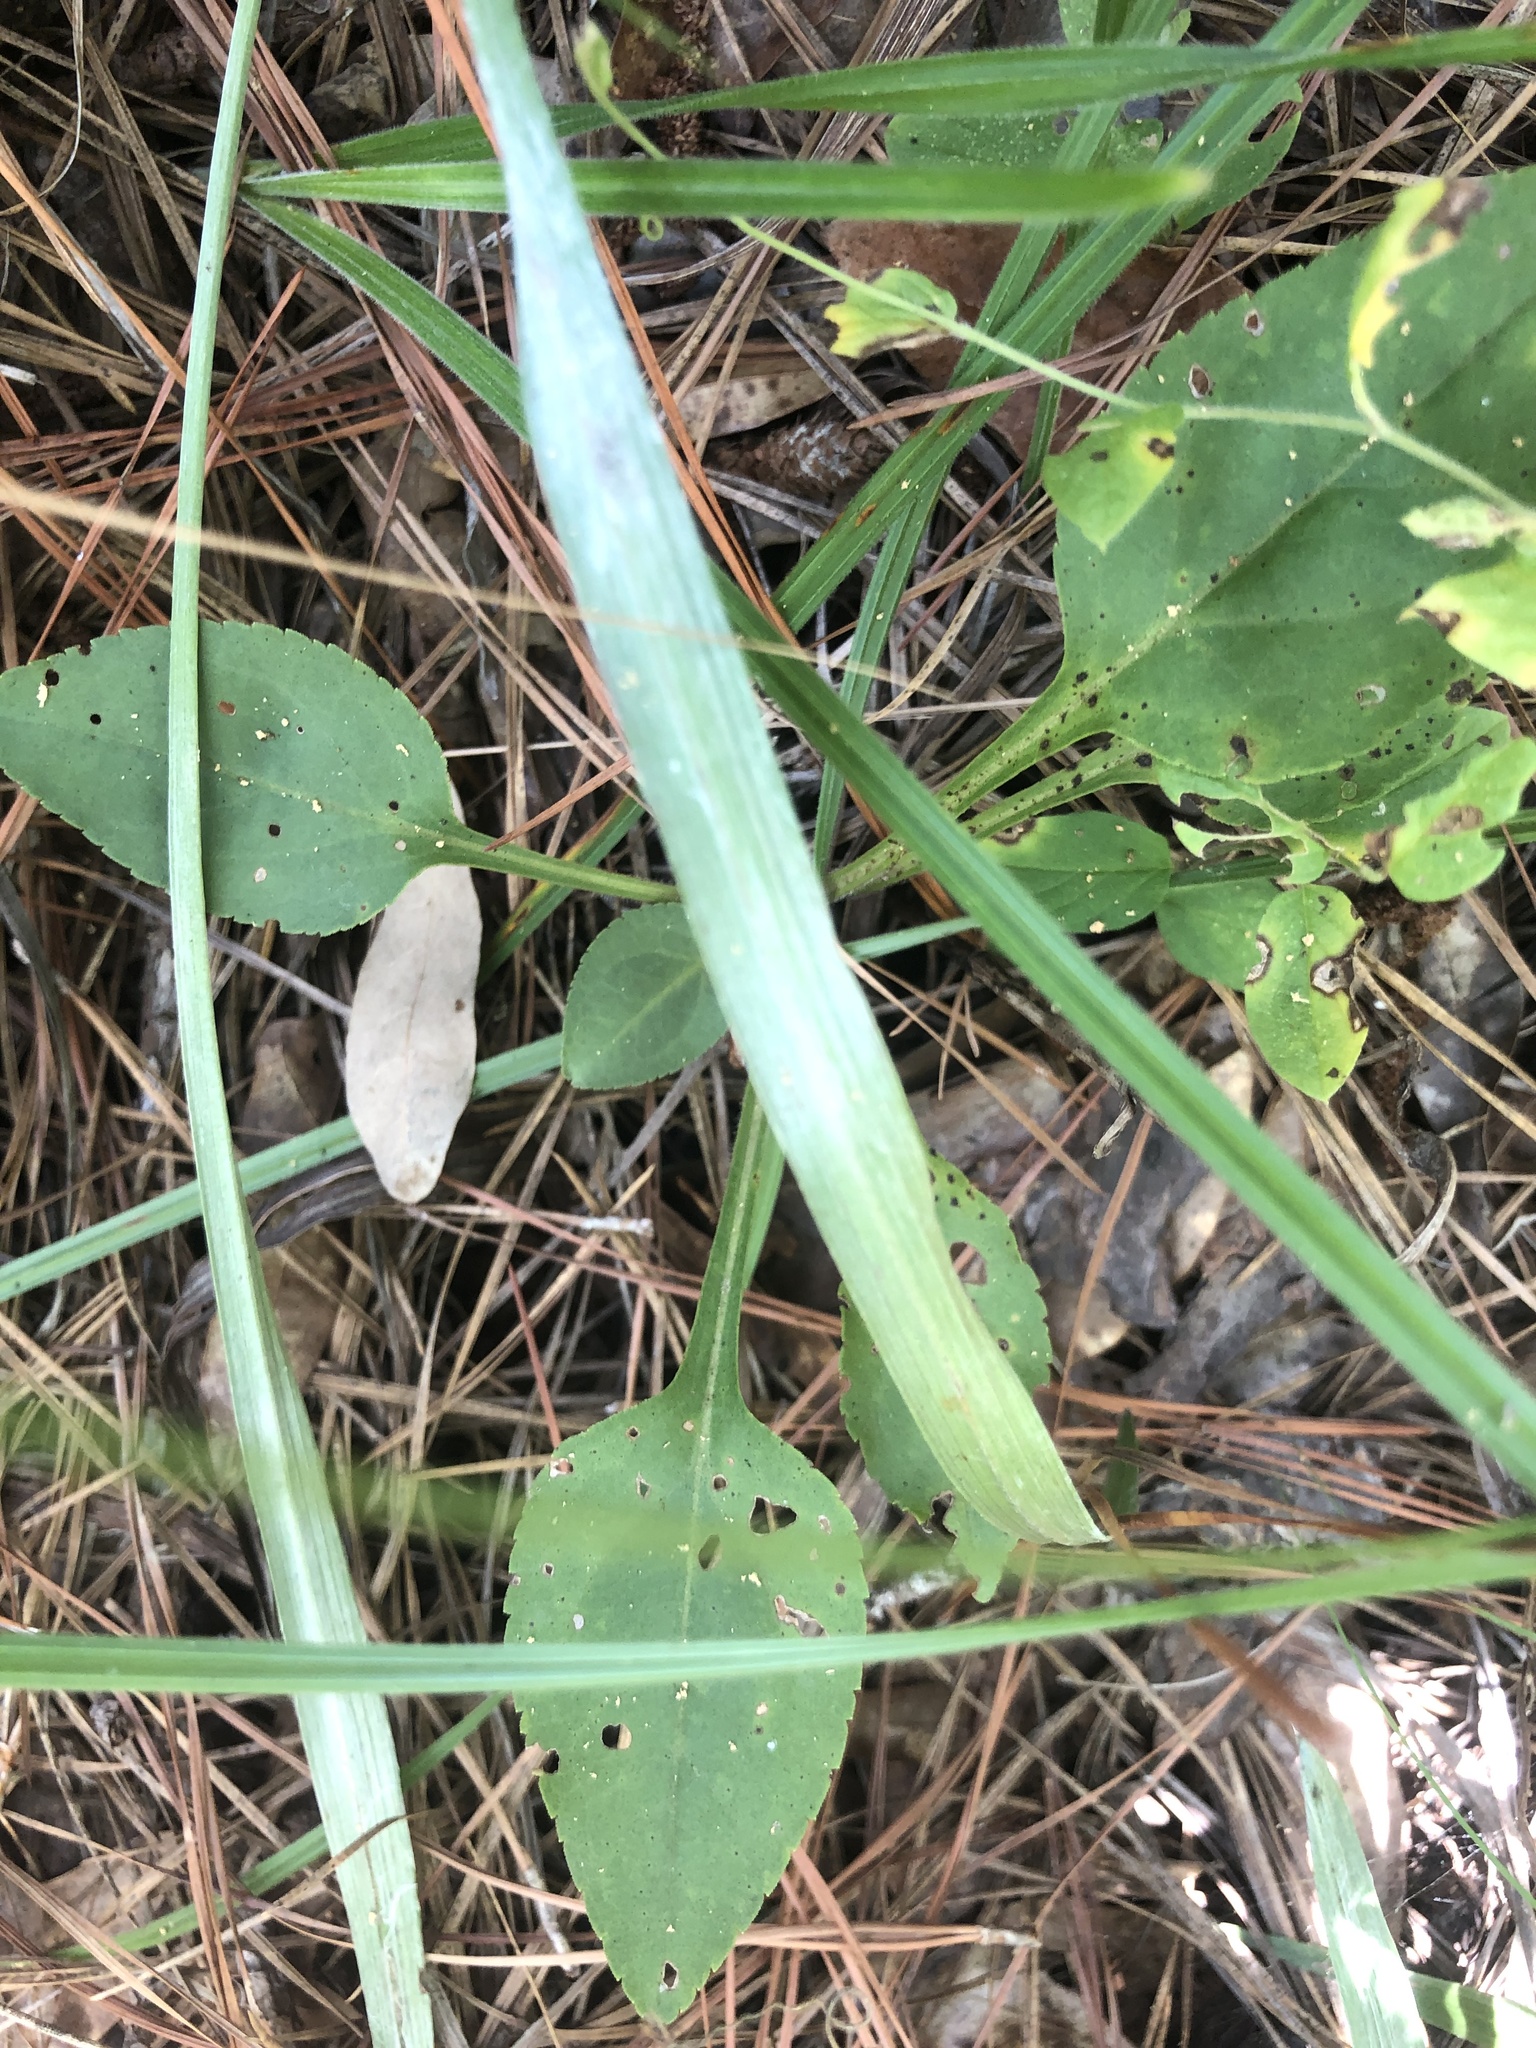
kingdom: Plantae
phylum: Tracheophyta
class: Magnoliopsida
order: Asterales
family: Asteraceae
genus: Solidago
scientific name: Solidago tarda
